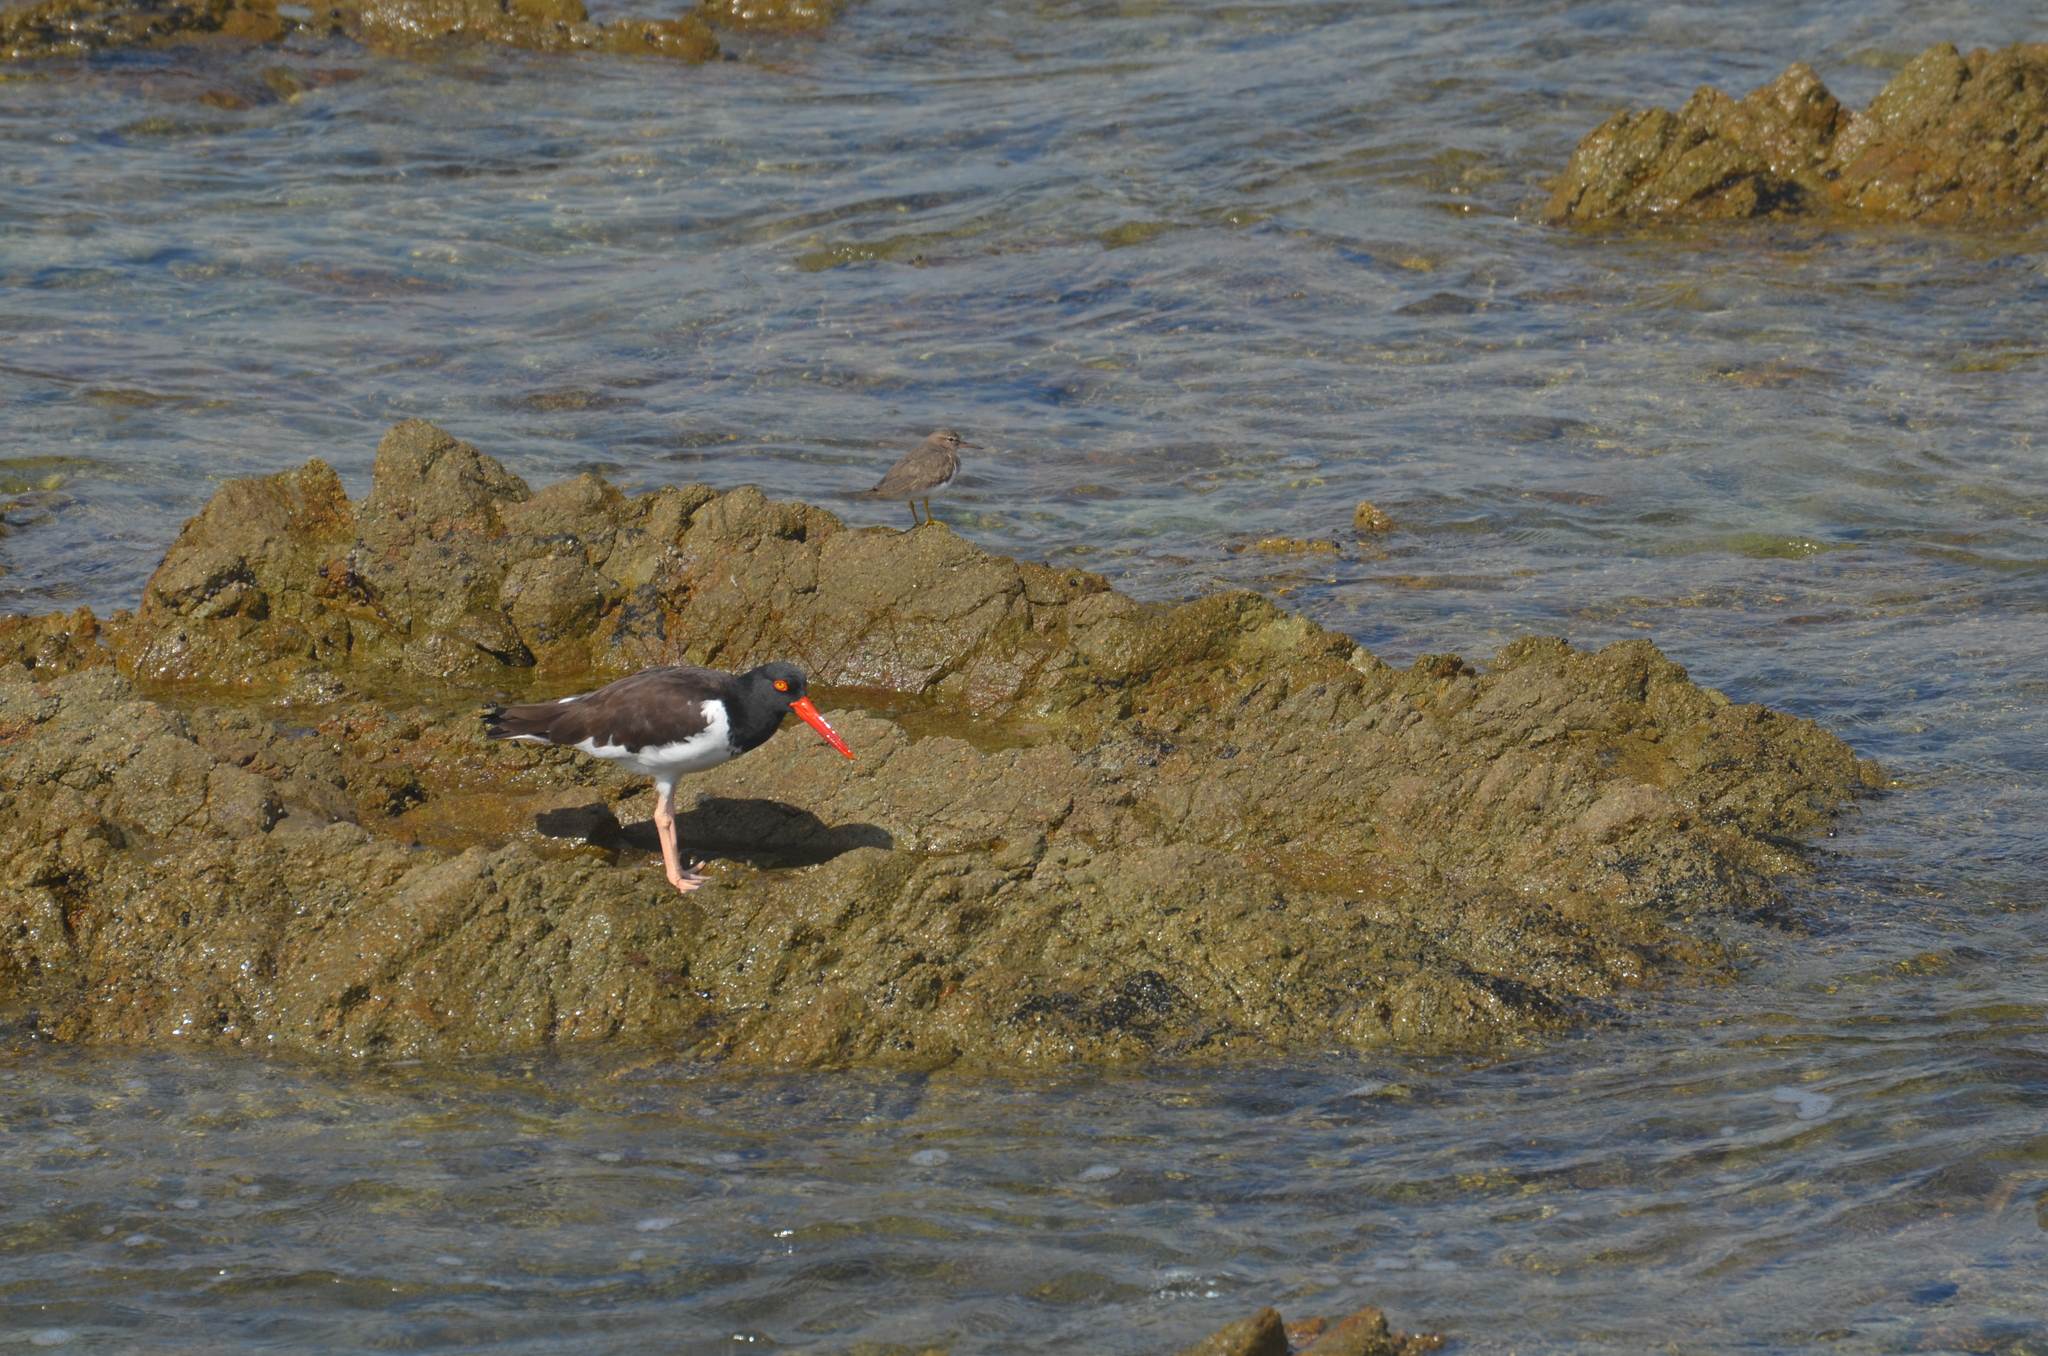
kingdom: Animalia
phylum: Chordata
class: Aves
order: Charadriiformes
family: Haematopodidae
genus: Haematopus
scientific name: Haematopus palliatus
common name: American oystercatcher
